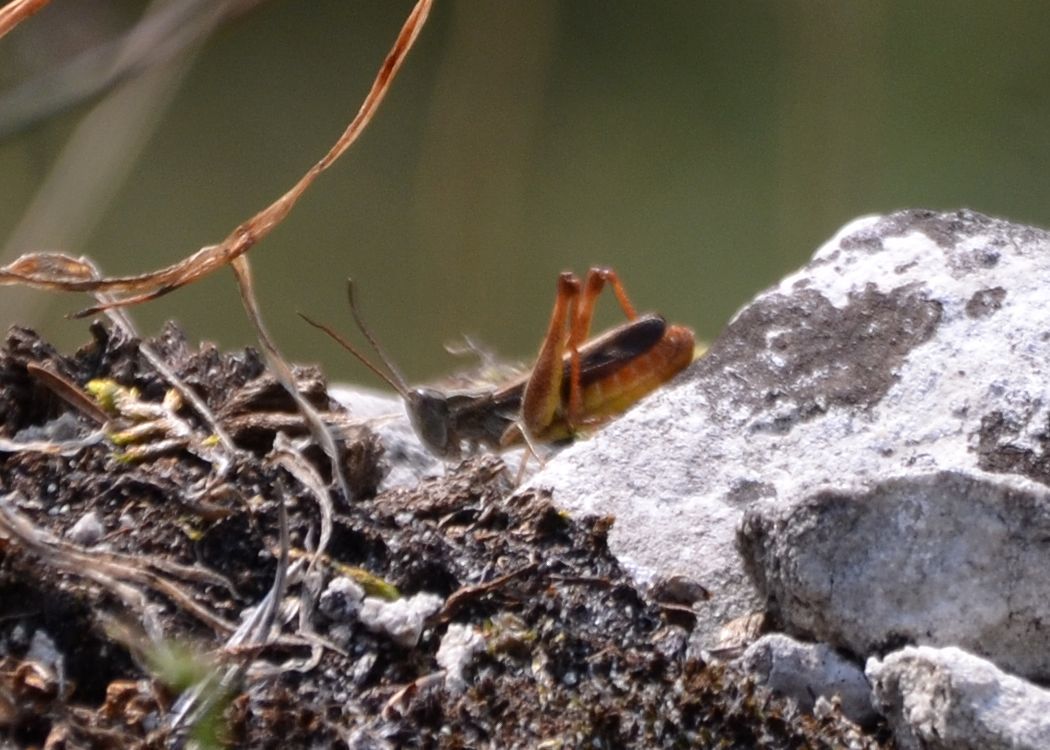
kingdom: Animalia
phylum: Arthropoda
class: Insecta
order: Orthoptera
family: Acrididae
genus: Chorthippus
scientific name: Chorthippus vagans
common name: Heath grasshopper
